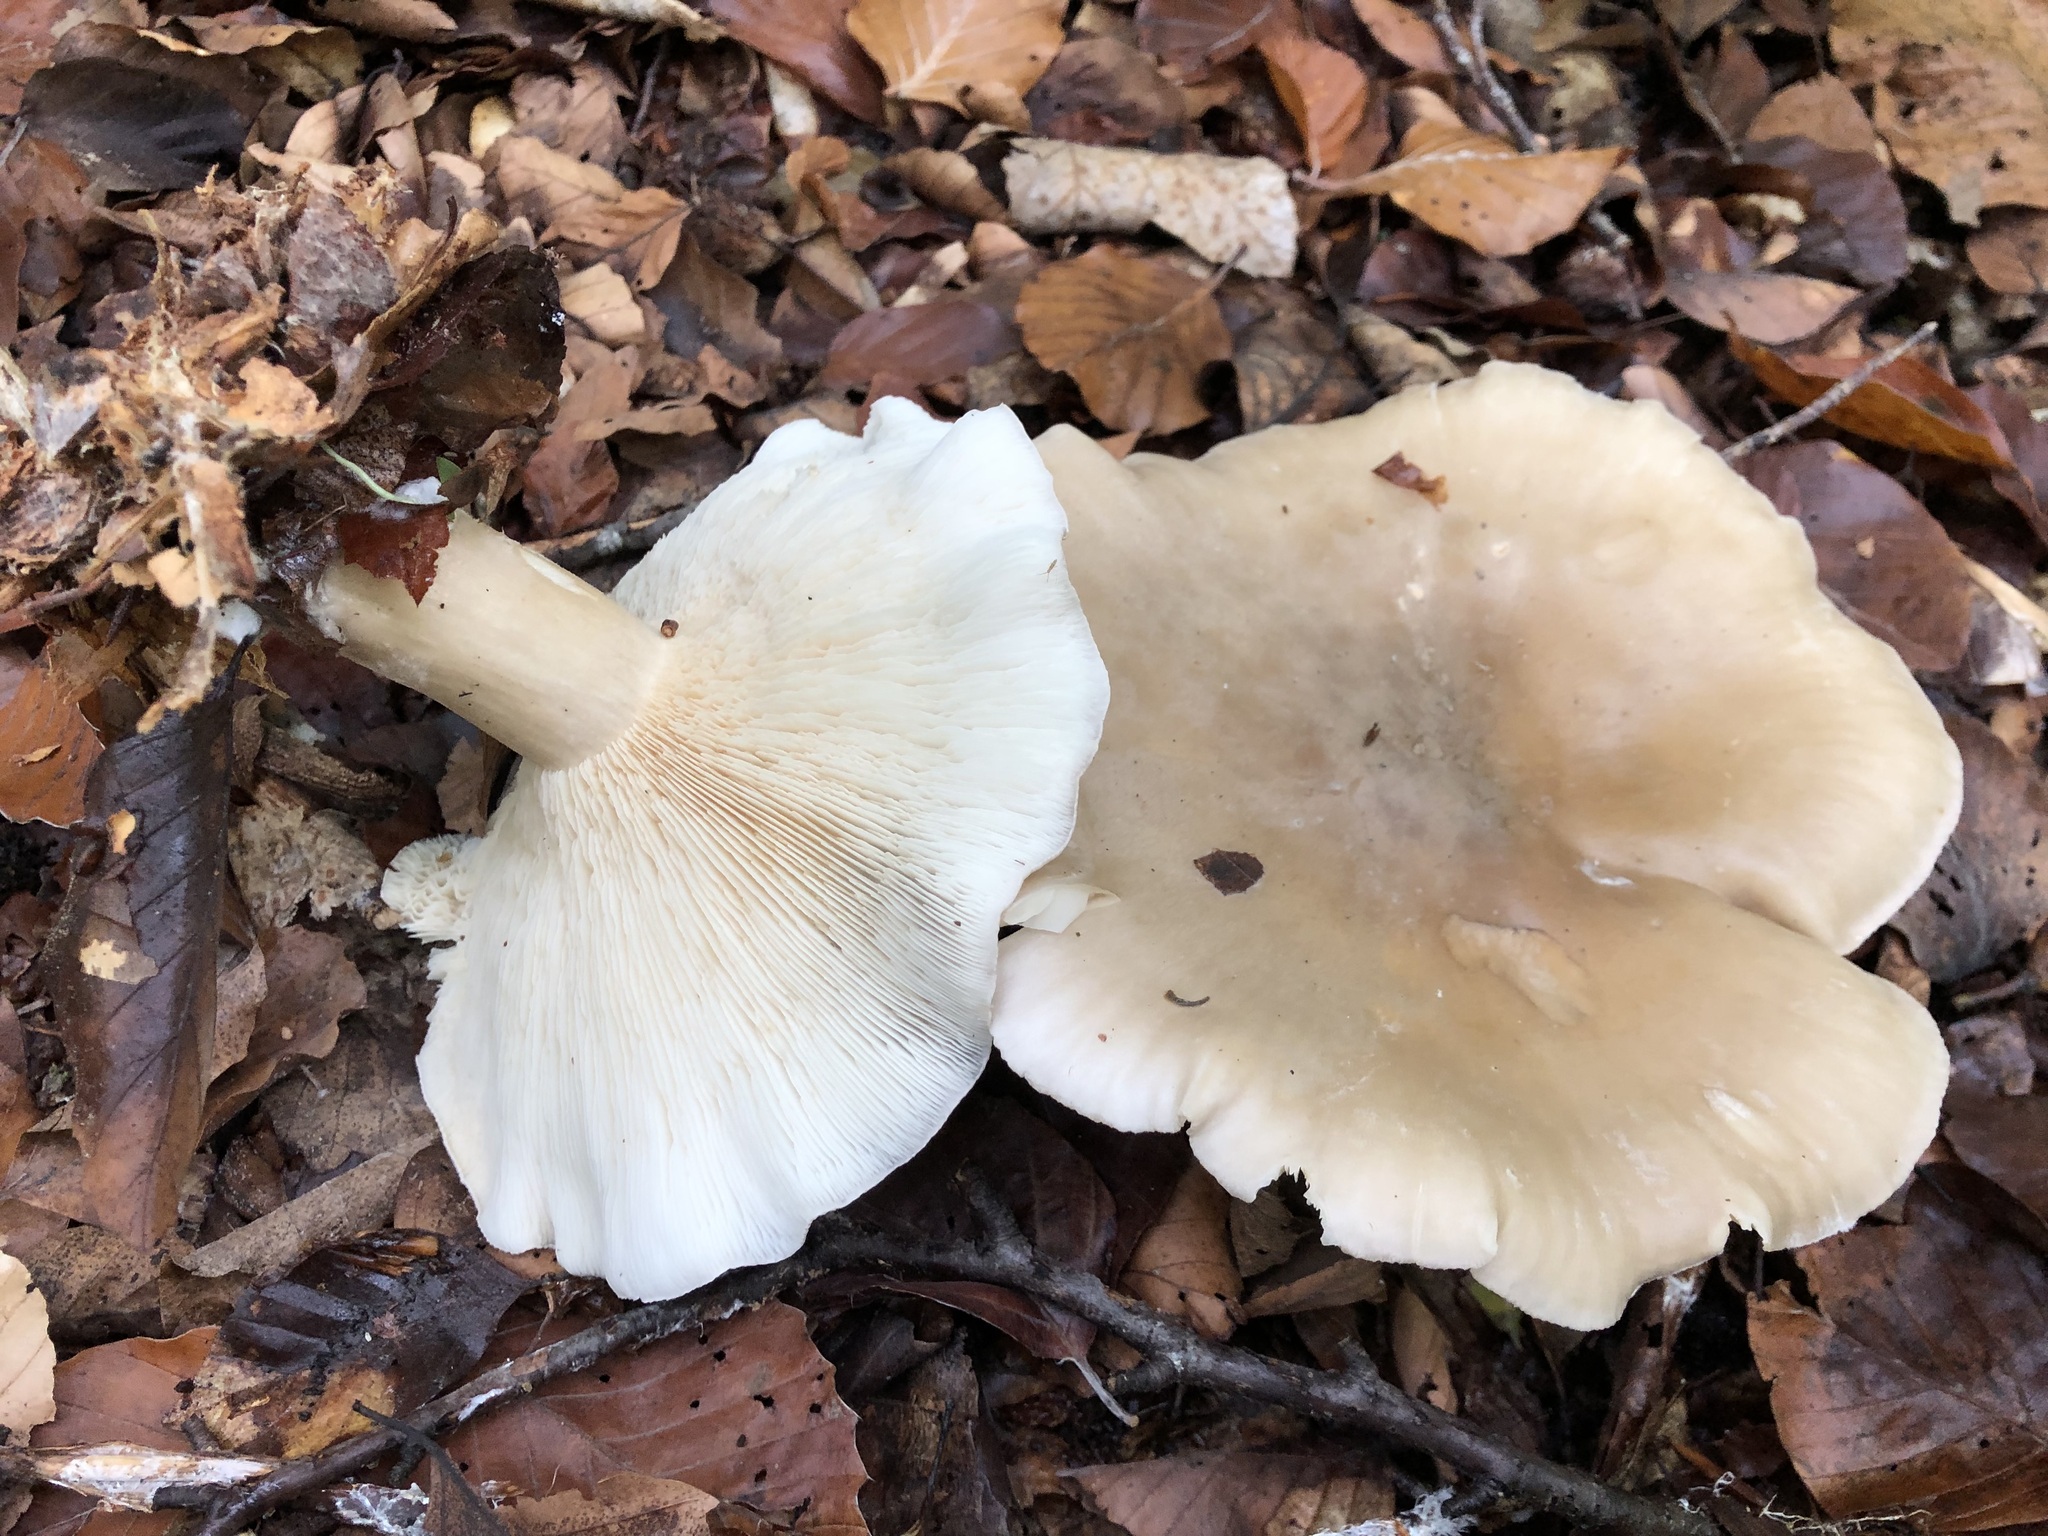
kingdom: Fungi
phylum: Basidiomycota
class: Agaricomycetes
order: Agaricales
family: Tricholomataceae
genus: Clitocybe
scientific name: Clitocybe nebularis
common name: Clouded agaric
